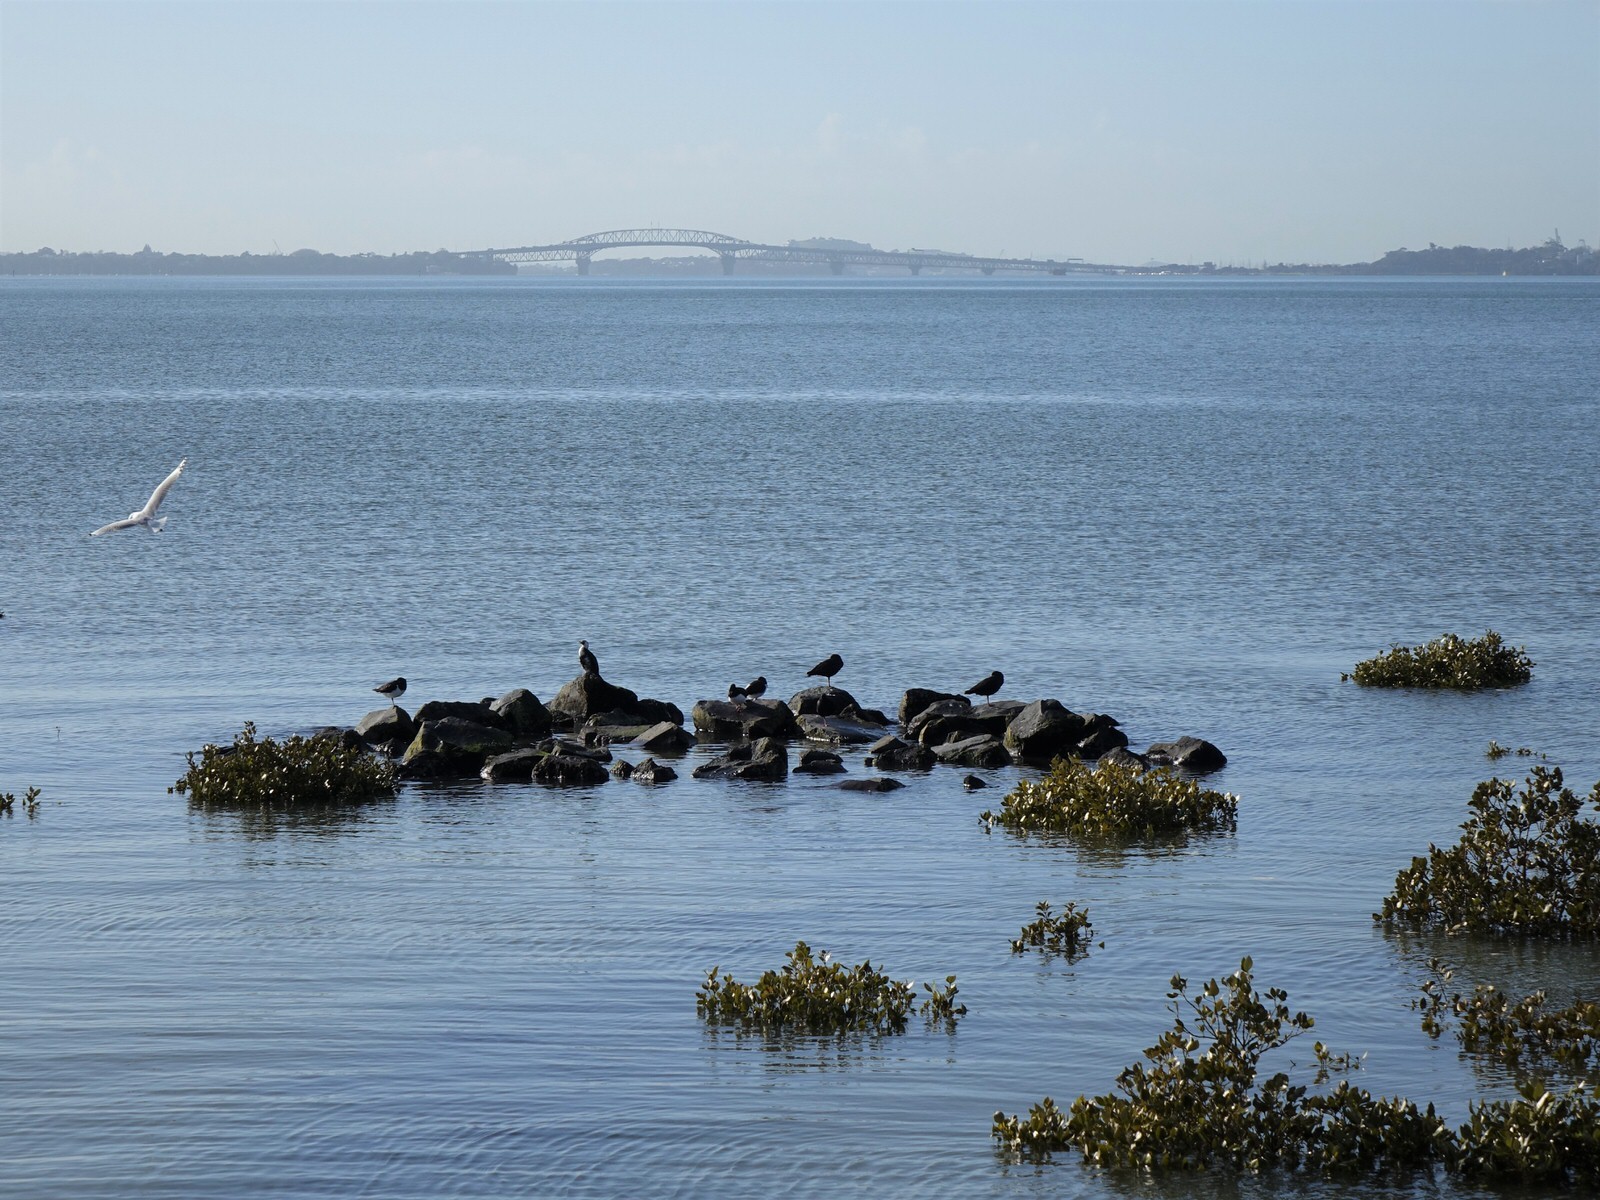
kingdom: Animalia
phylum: Chordata
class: Aves
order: Suliformes
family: Phalacrocoracidae
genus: Microcarbo
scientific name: Microcarbo melanoleucos
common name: Little pied cormorant
